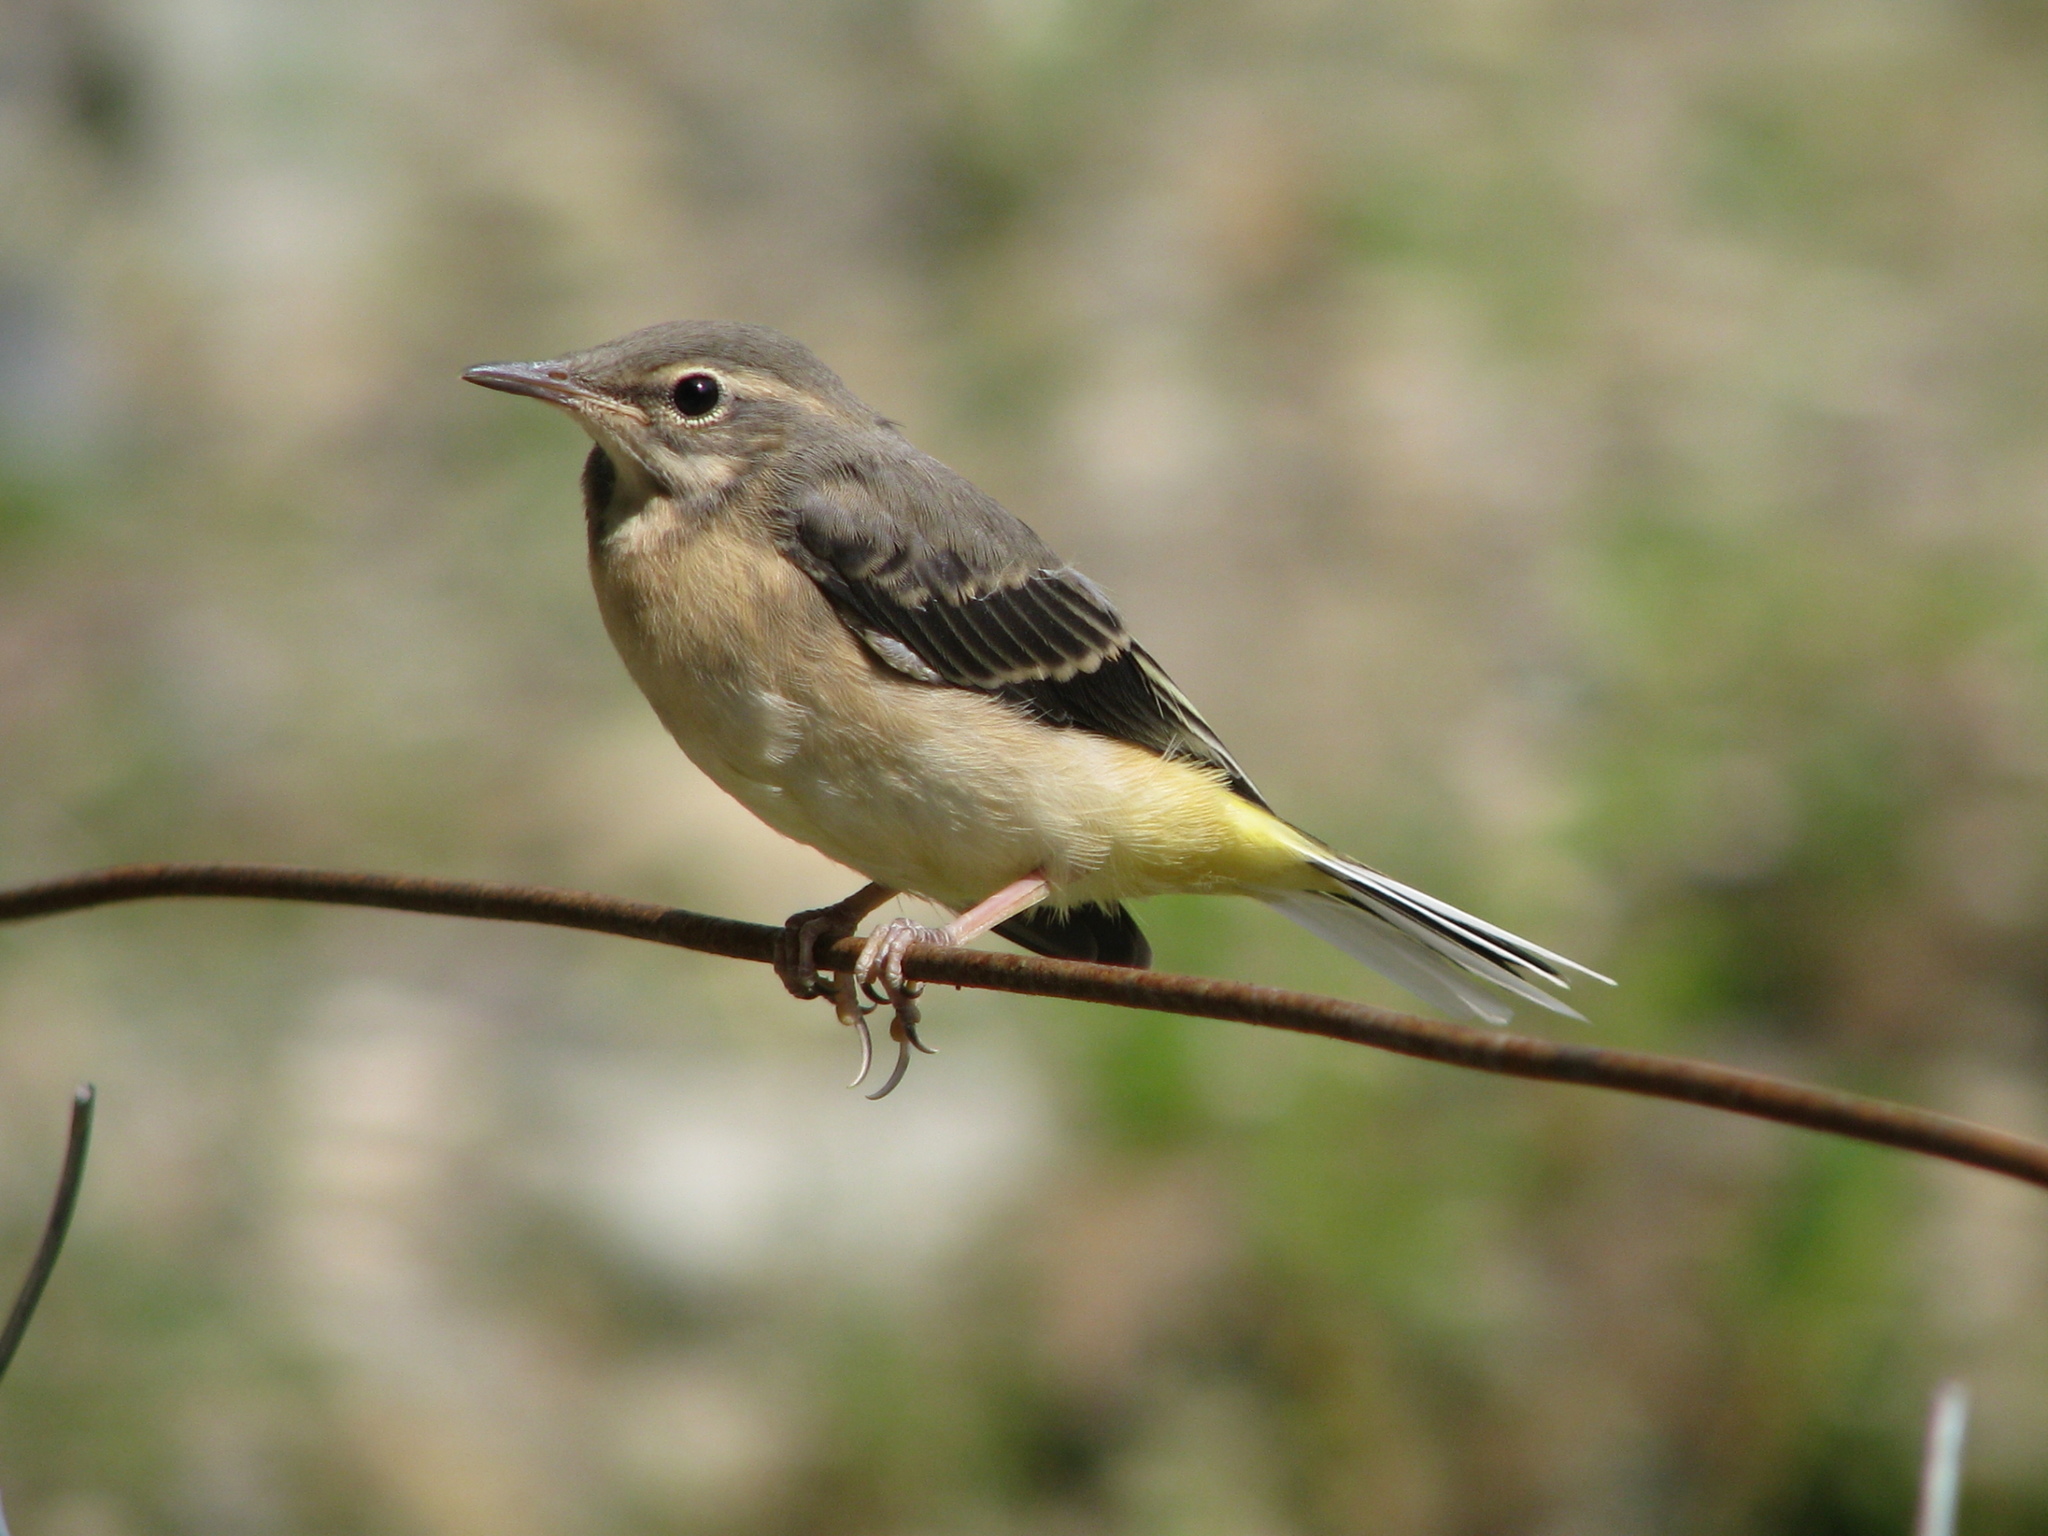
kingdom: Animalia
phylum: Chordata
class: Aves
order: Passeriformes
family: Motacillidae
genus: Motacilla
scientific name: Motacilla cinerea
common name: Grey wagtail
